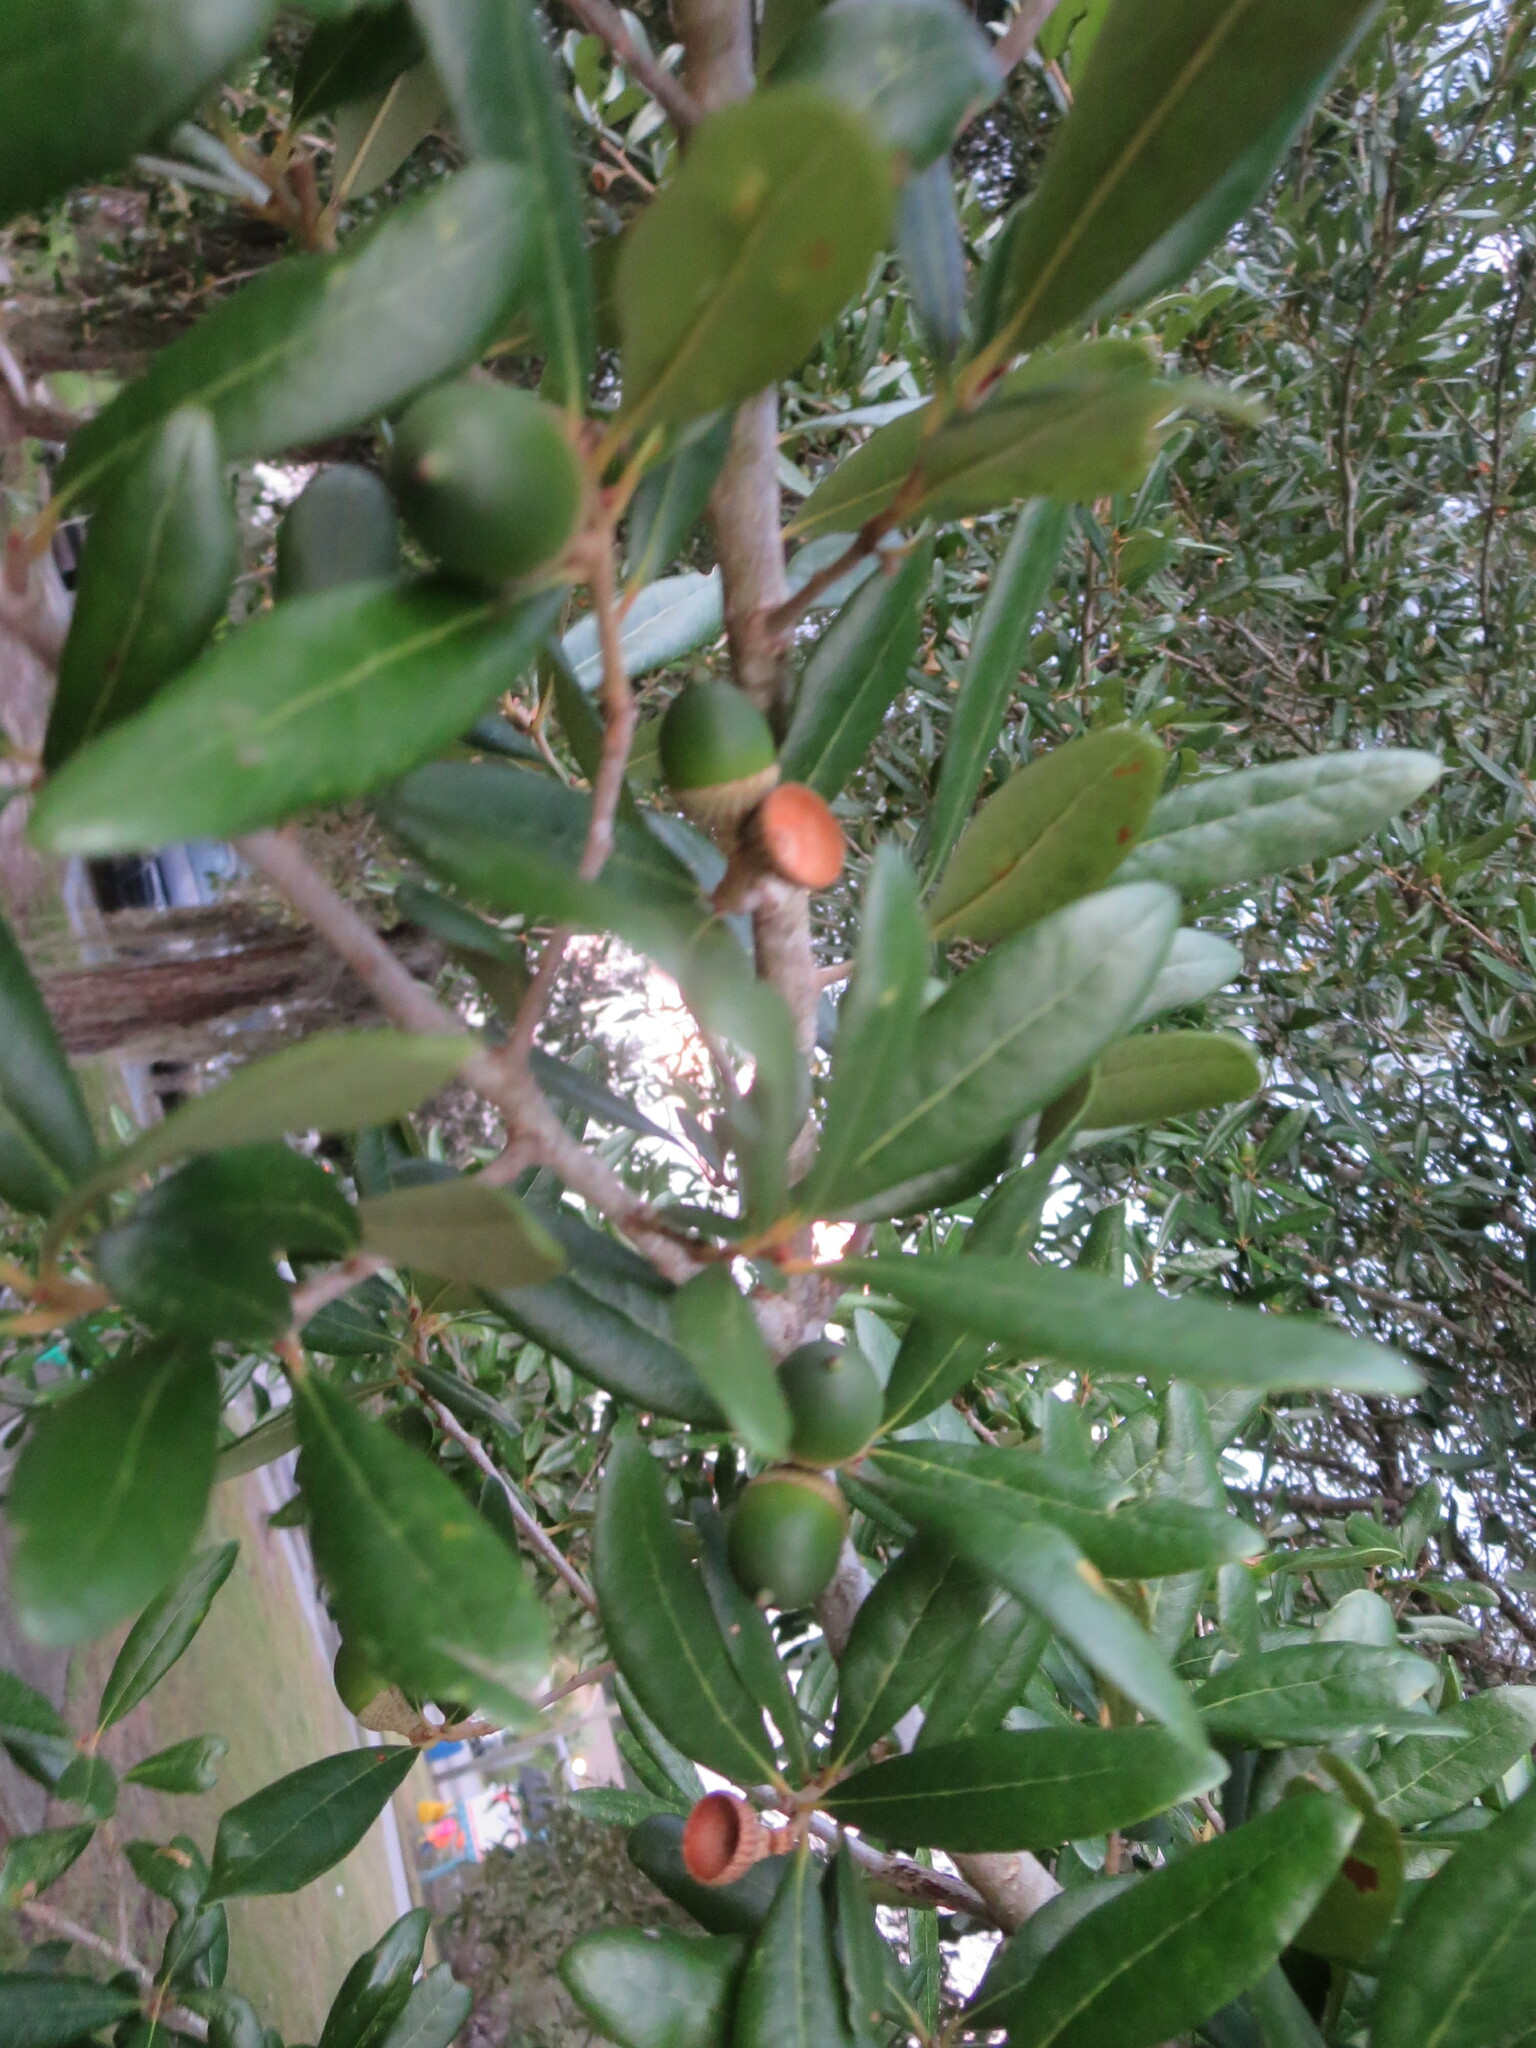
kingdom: Plantae
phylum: Tracheophyta
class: Magnoliopsida
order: Fagales
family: Fagaceae
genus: Quercus
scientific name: Quercus virginiana
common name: Southern live oak
